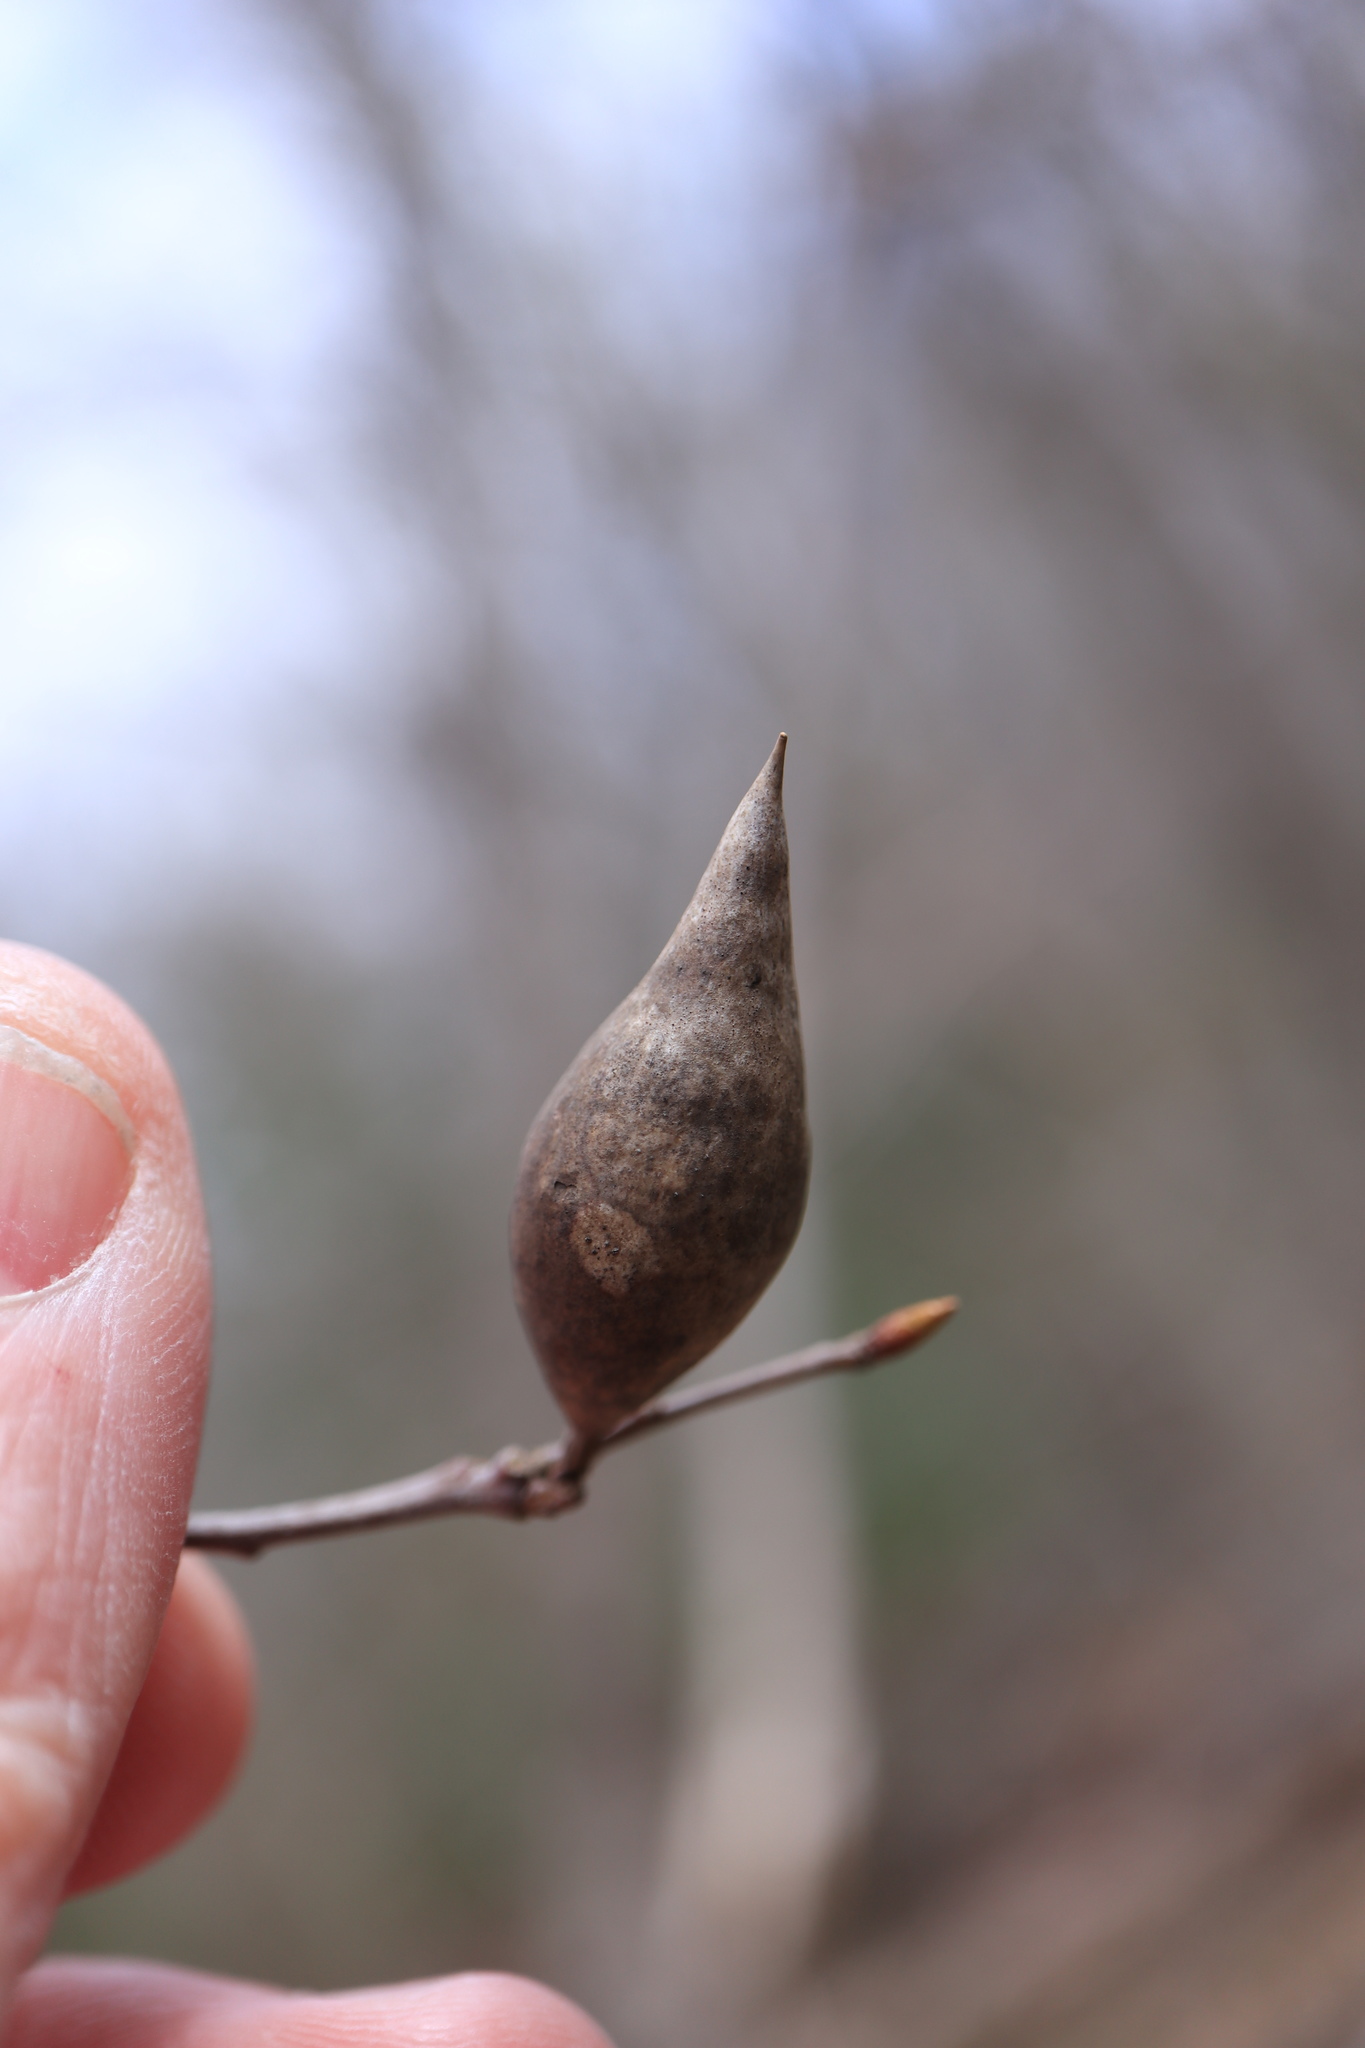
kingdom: Animalia
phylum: Arthropoda
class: Insecta
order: Hymenoptera
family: Cynipidae
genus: Amphibolips
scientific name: Amphibolips
